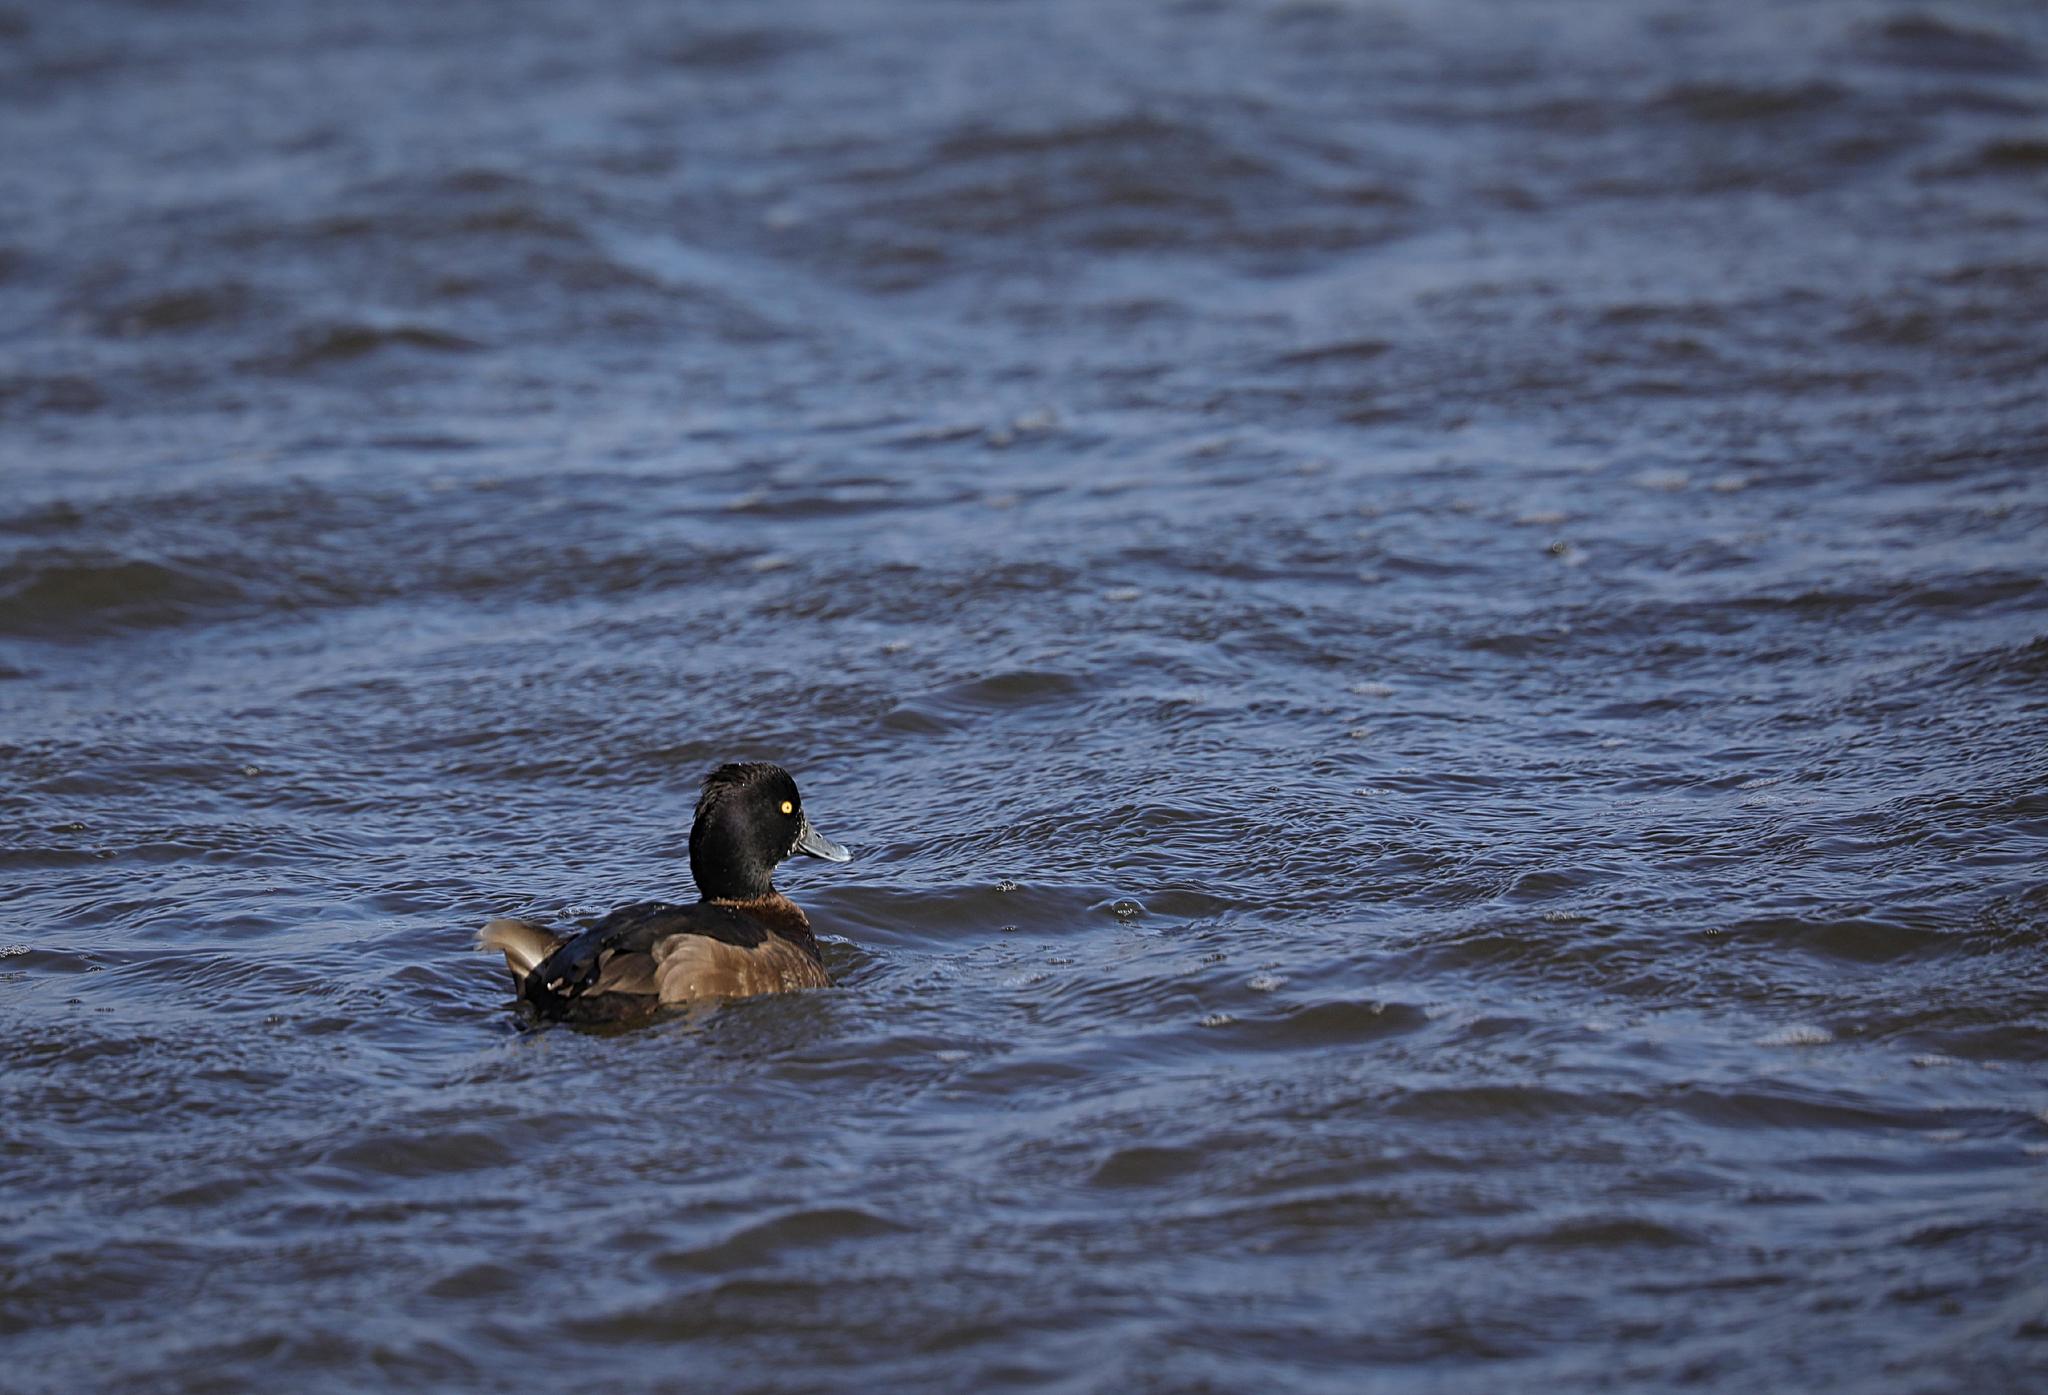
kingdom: Animalia
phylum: Chordata
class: Aves
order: Anseriformes
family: Anatidae
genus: Aythya
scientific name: Aythya fuligula
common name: Tufted duck
